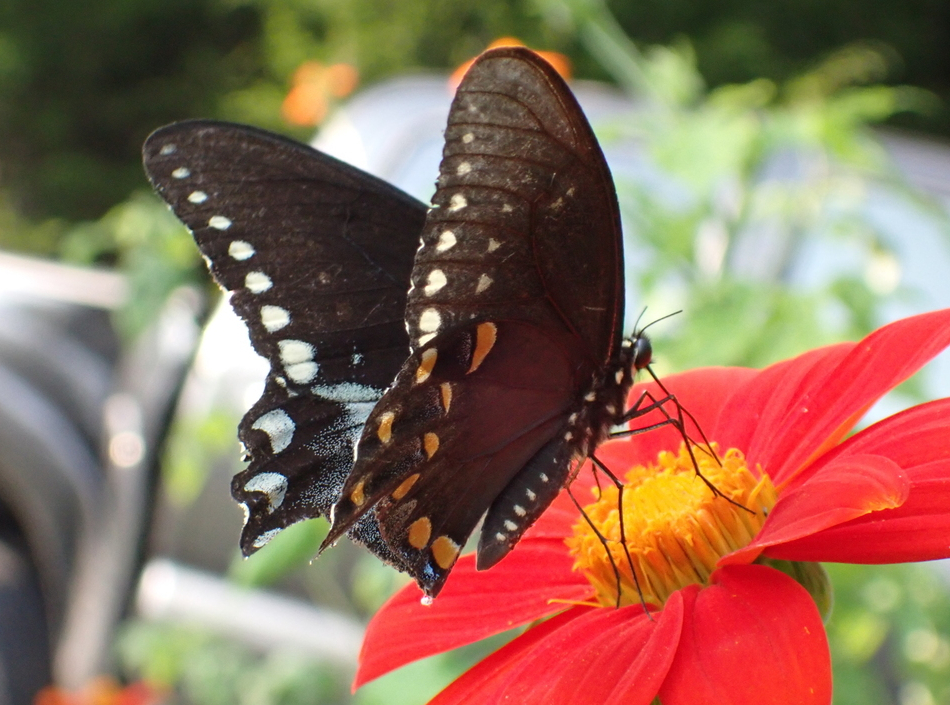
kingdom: Animalia
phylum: Arthropoda
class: Insecta
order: Lepidoptera
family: Papilionidae
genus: Papilio
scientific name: Papilio troilus
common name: Spicebush swallowtail
